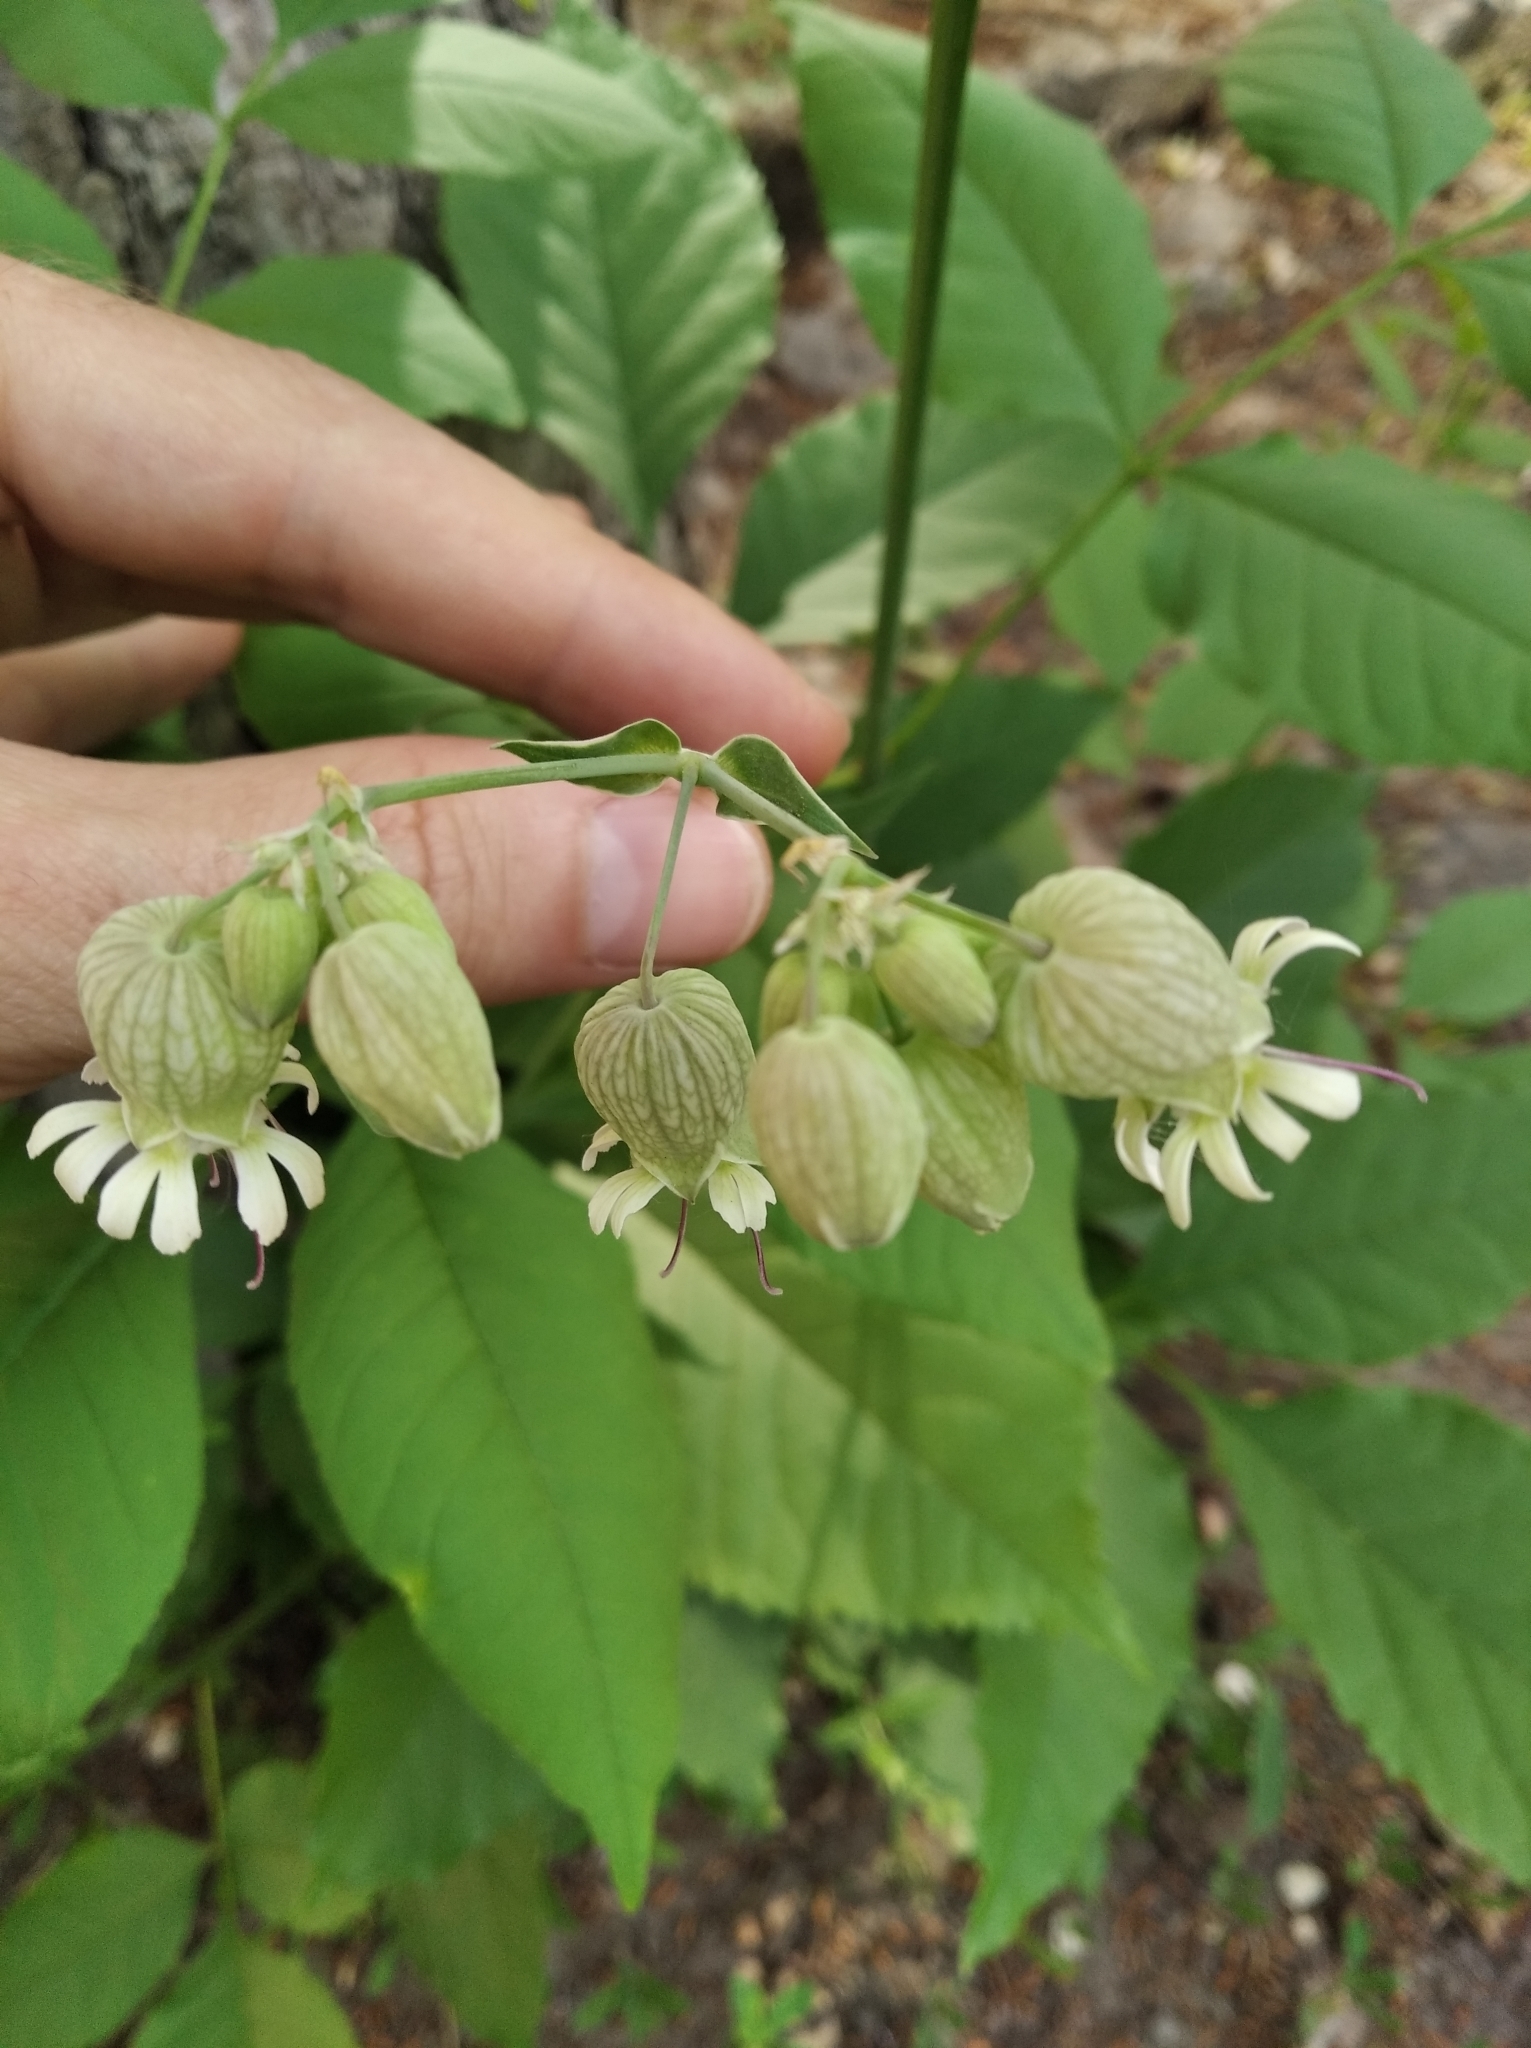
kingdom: Plantae
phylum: Tracheophyta
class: Magnoliopsida
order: Caryophyllales
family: Caryophyllaceae
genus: Silene
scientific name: Silene vulgaris
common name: Bladder campion
